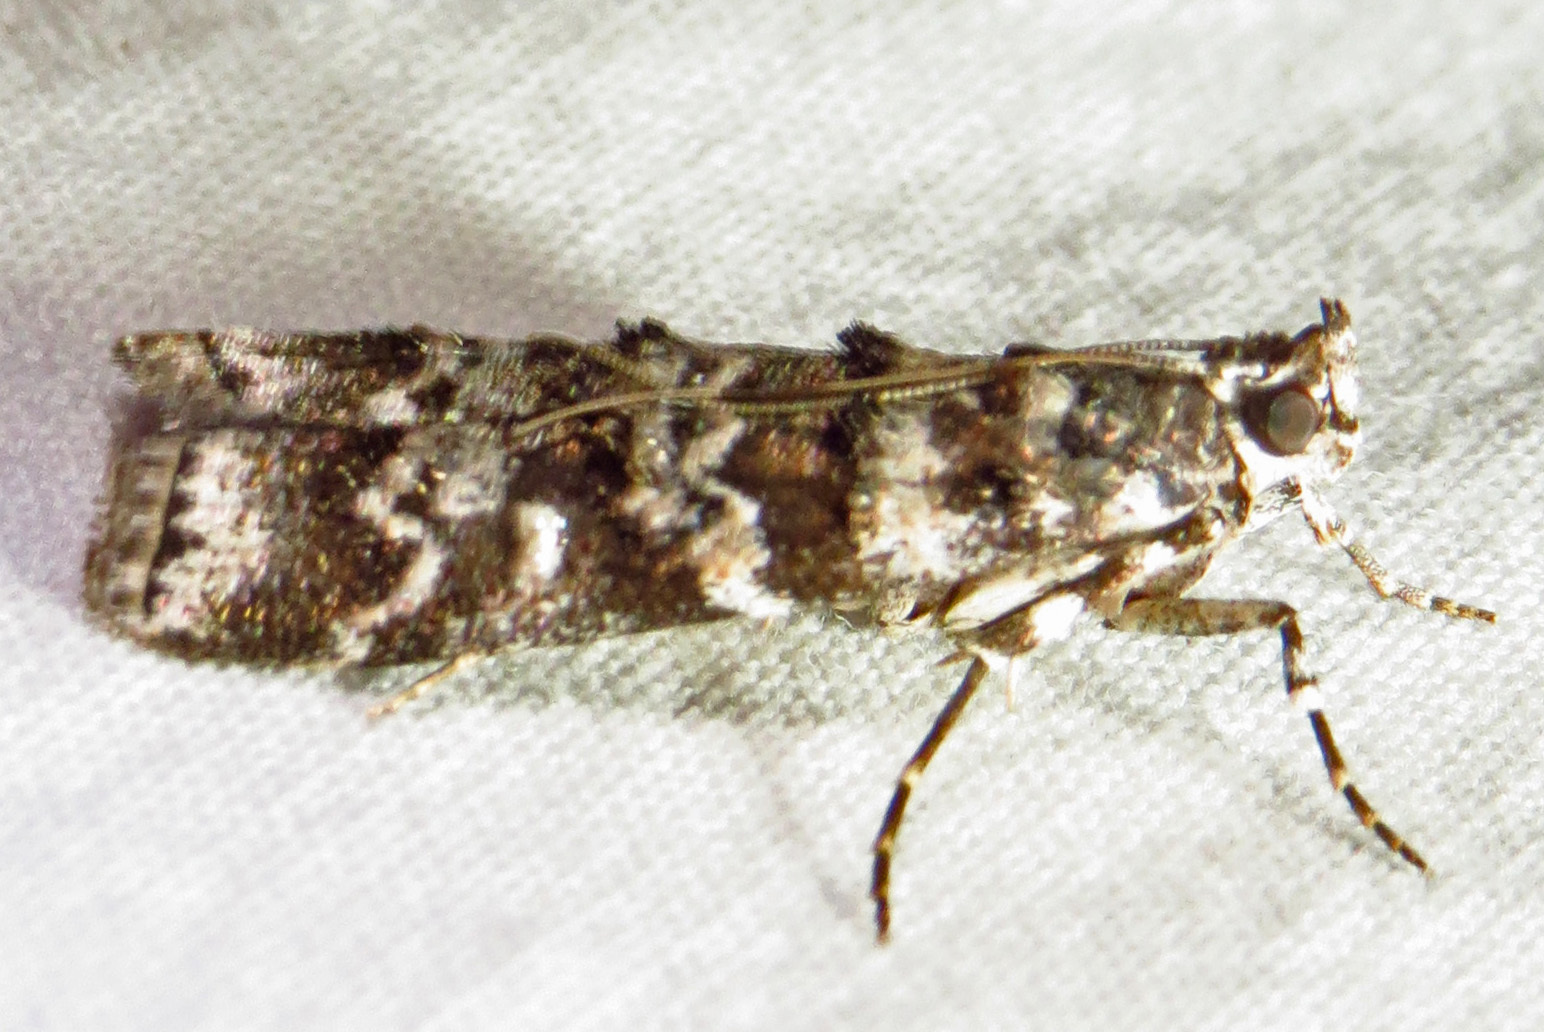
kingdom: Animalia
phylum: Arthropoda
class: Insecta
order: Lepidoptera
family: Pyralidae
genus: Dioryctria
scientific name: Dioryctria amatella
